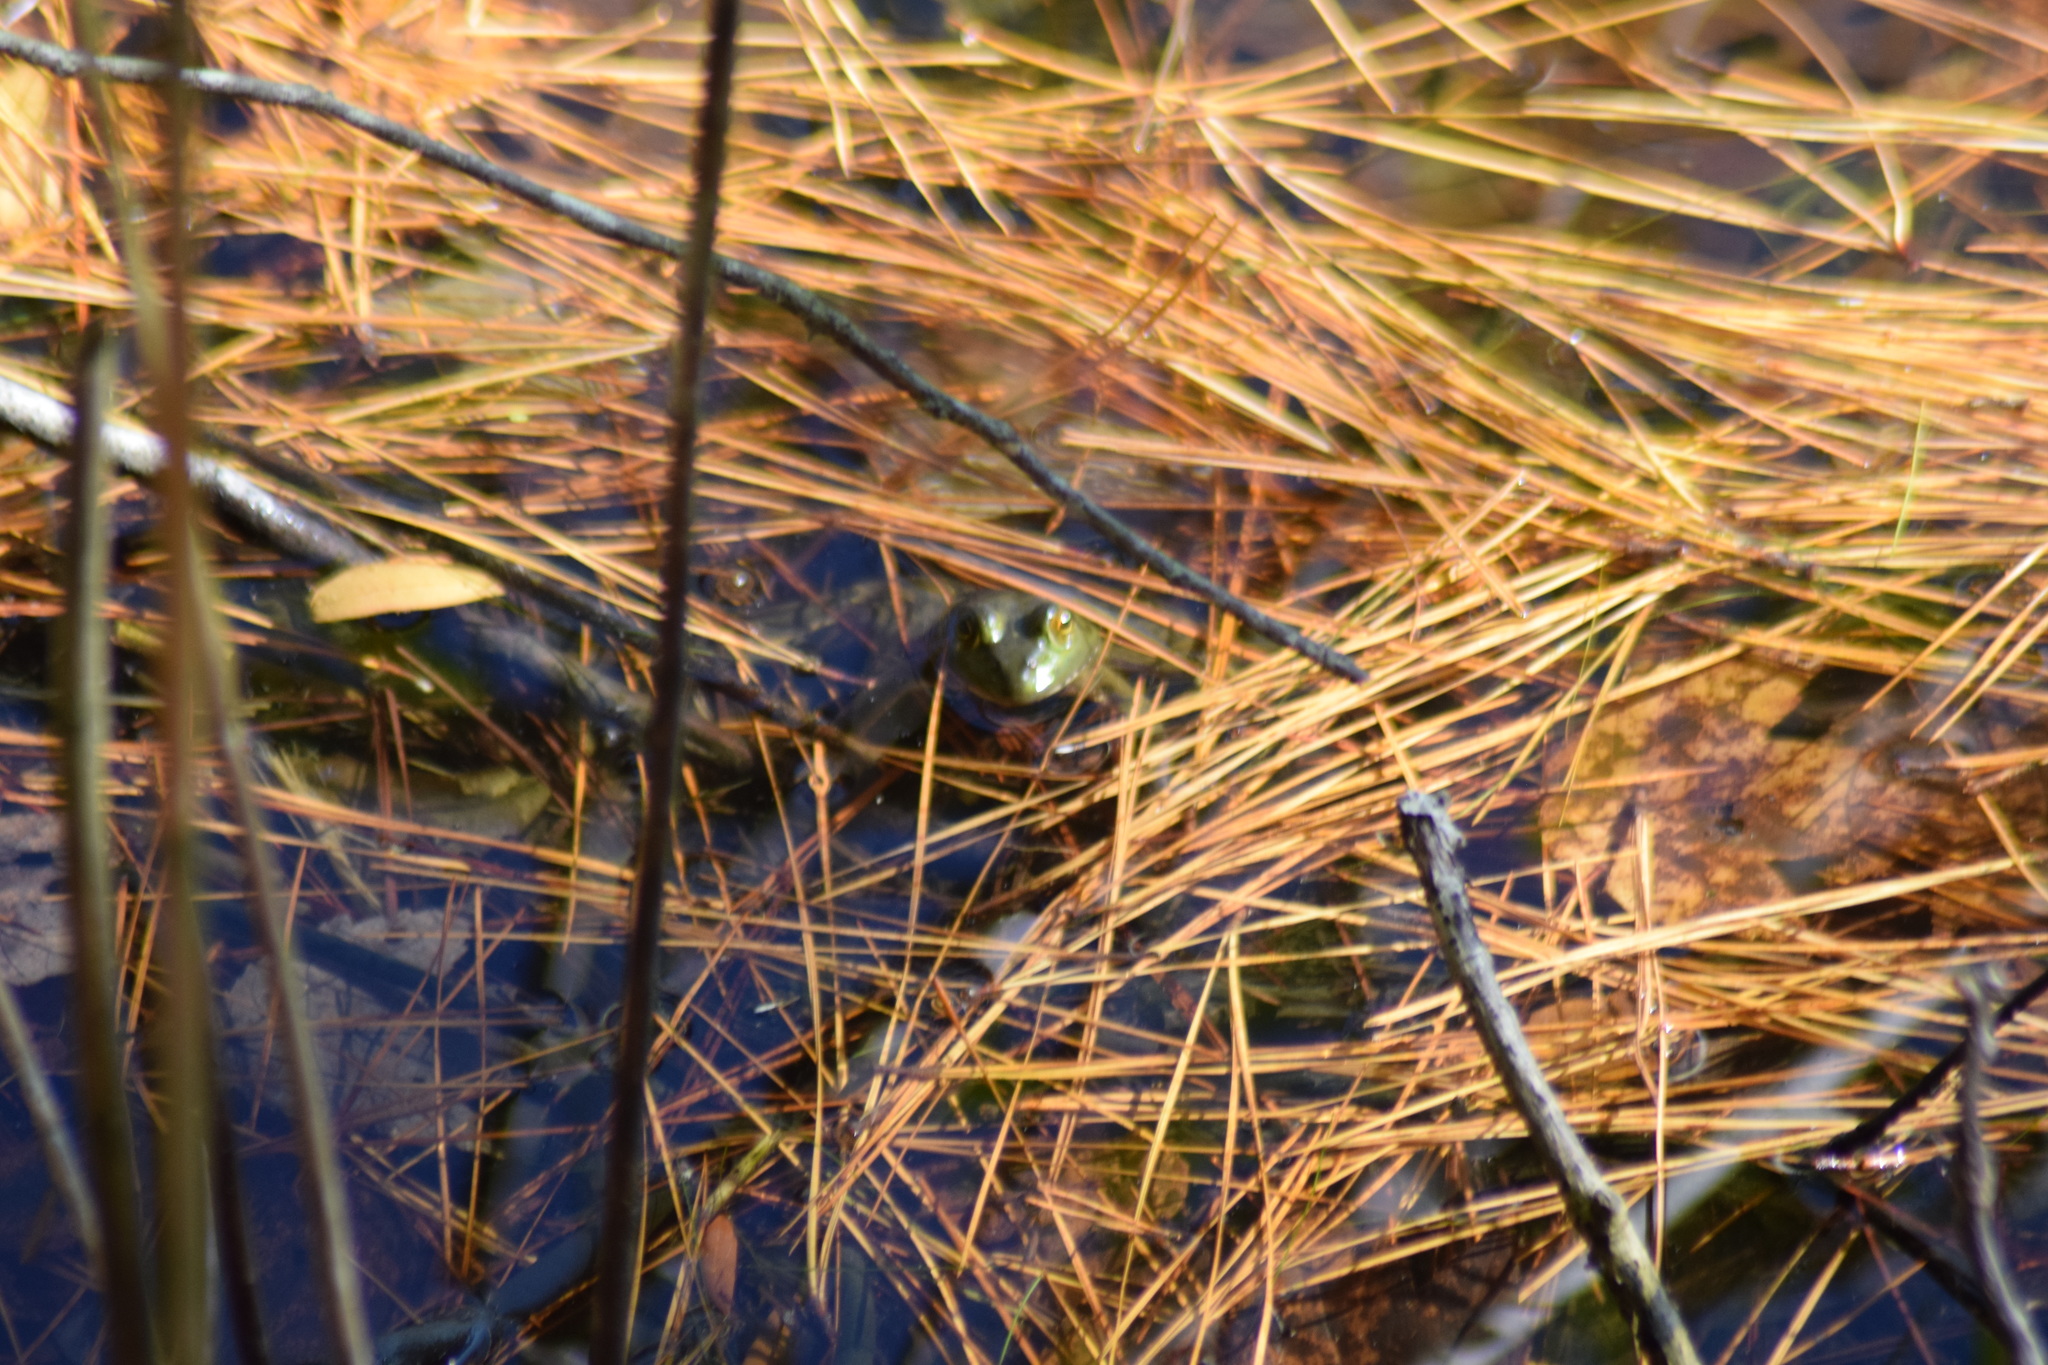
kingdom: Animalia
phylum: Chordata
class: Amphibia
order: Anura
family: Ranidae
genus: Lithobates
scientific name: Lithobates catesbeianus
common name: American bullfrog
